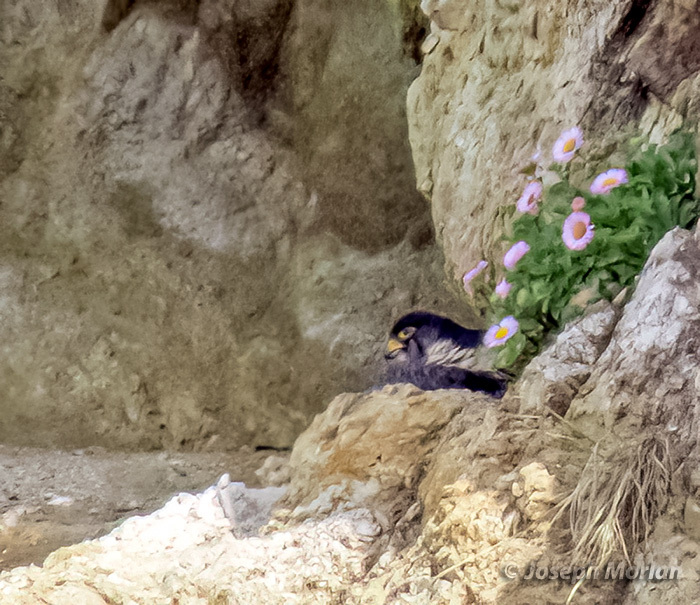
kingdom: Animalia
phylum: Chordata
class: Aves
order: Falconiformes
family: Falconidae
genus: Falco
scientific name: Falco peregrinus
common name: Peregrine falcon
